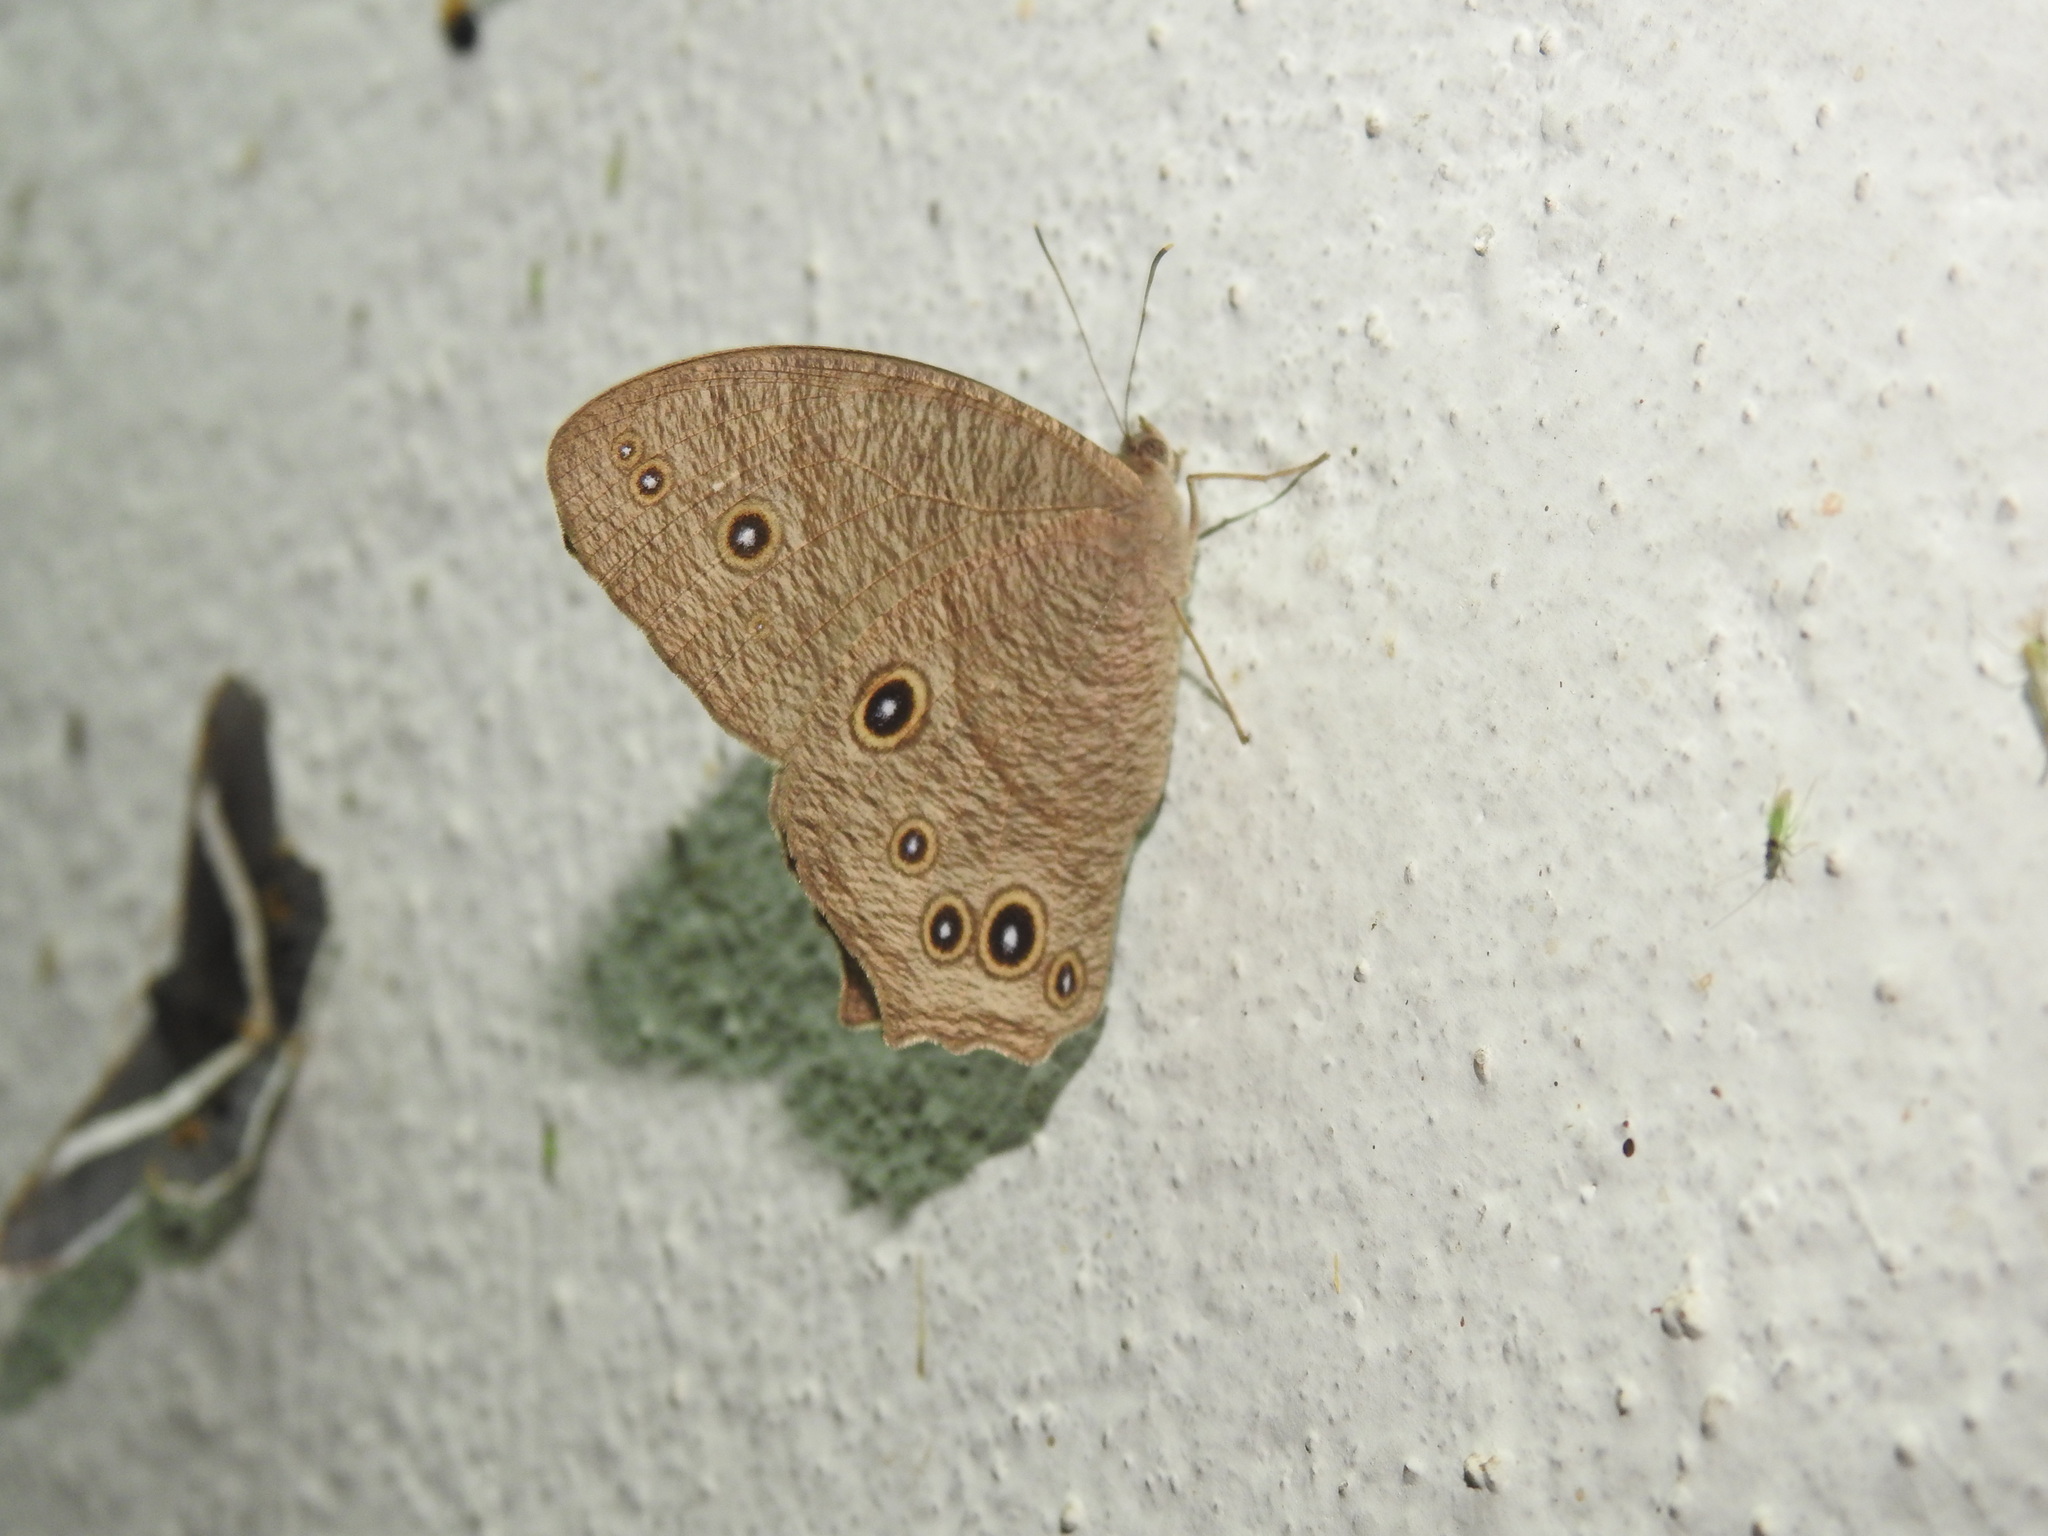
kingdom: Animalia
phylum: Arthropoda
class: Insecta
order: Lepidoptera
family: Nymphalidae
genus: Melanitis
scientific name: Melanitis leda
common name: Twilight brown
